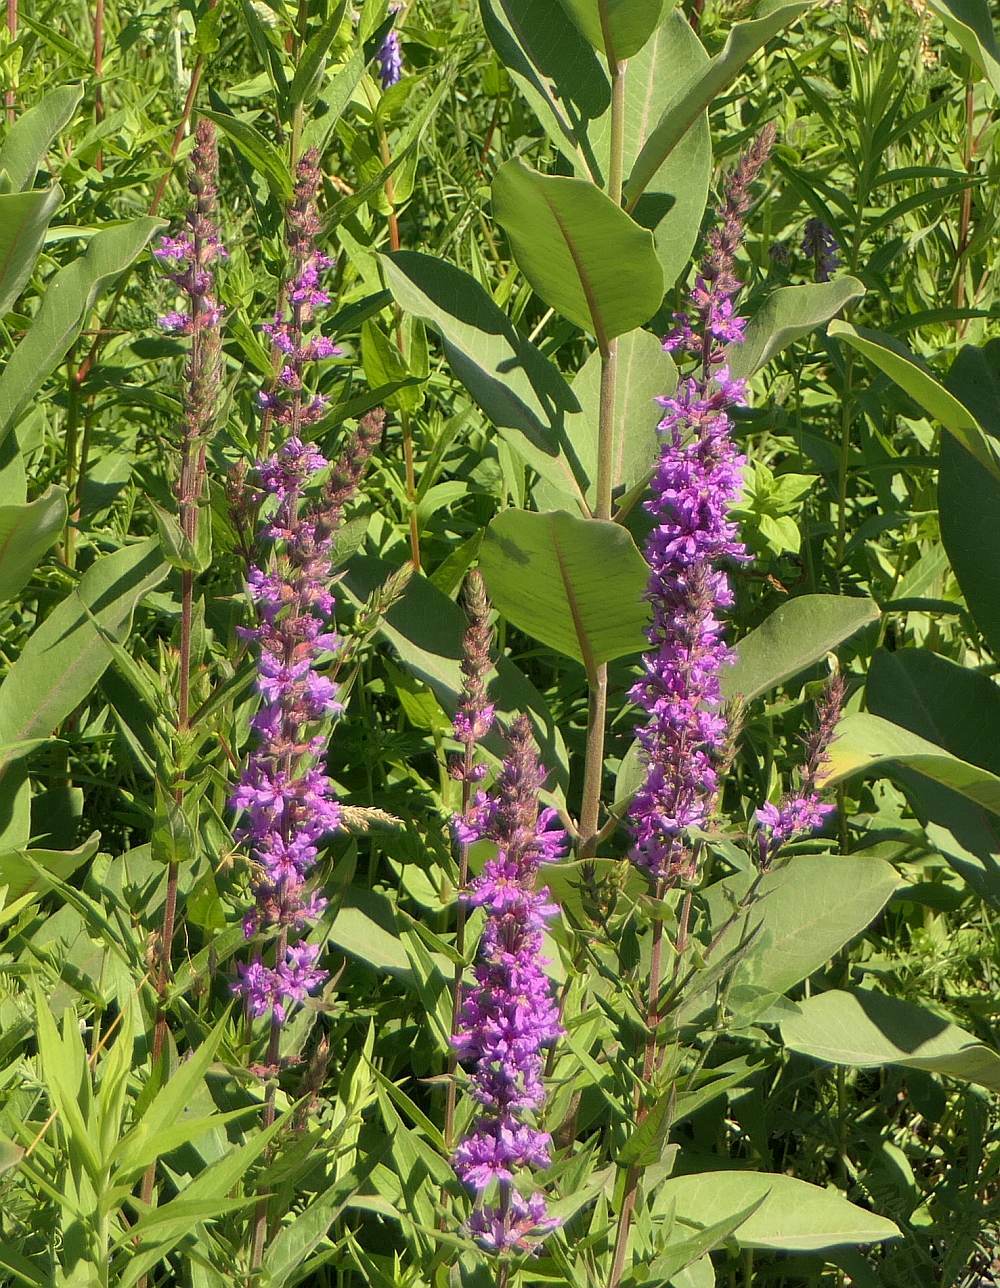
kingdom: Plantae
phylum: Tracheophyta
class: Magnoliopsida
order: Myrtales
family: Lythraceae
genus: Lythrum
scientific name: Lythrum salicaria
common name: Purple loosestrife
